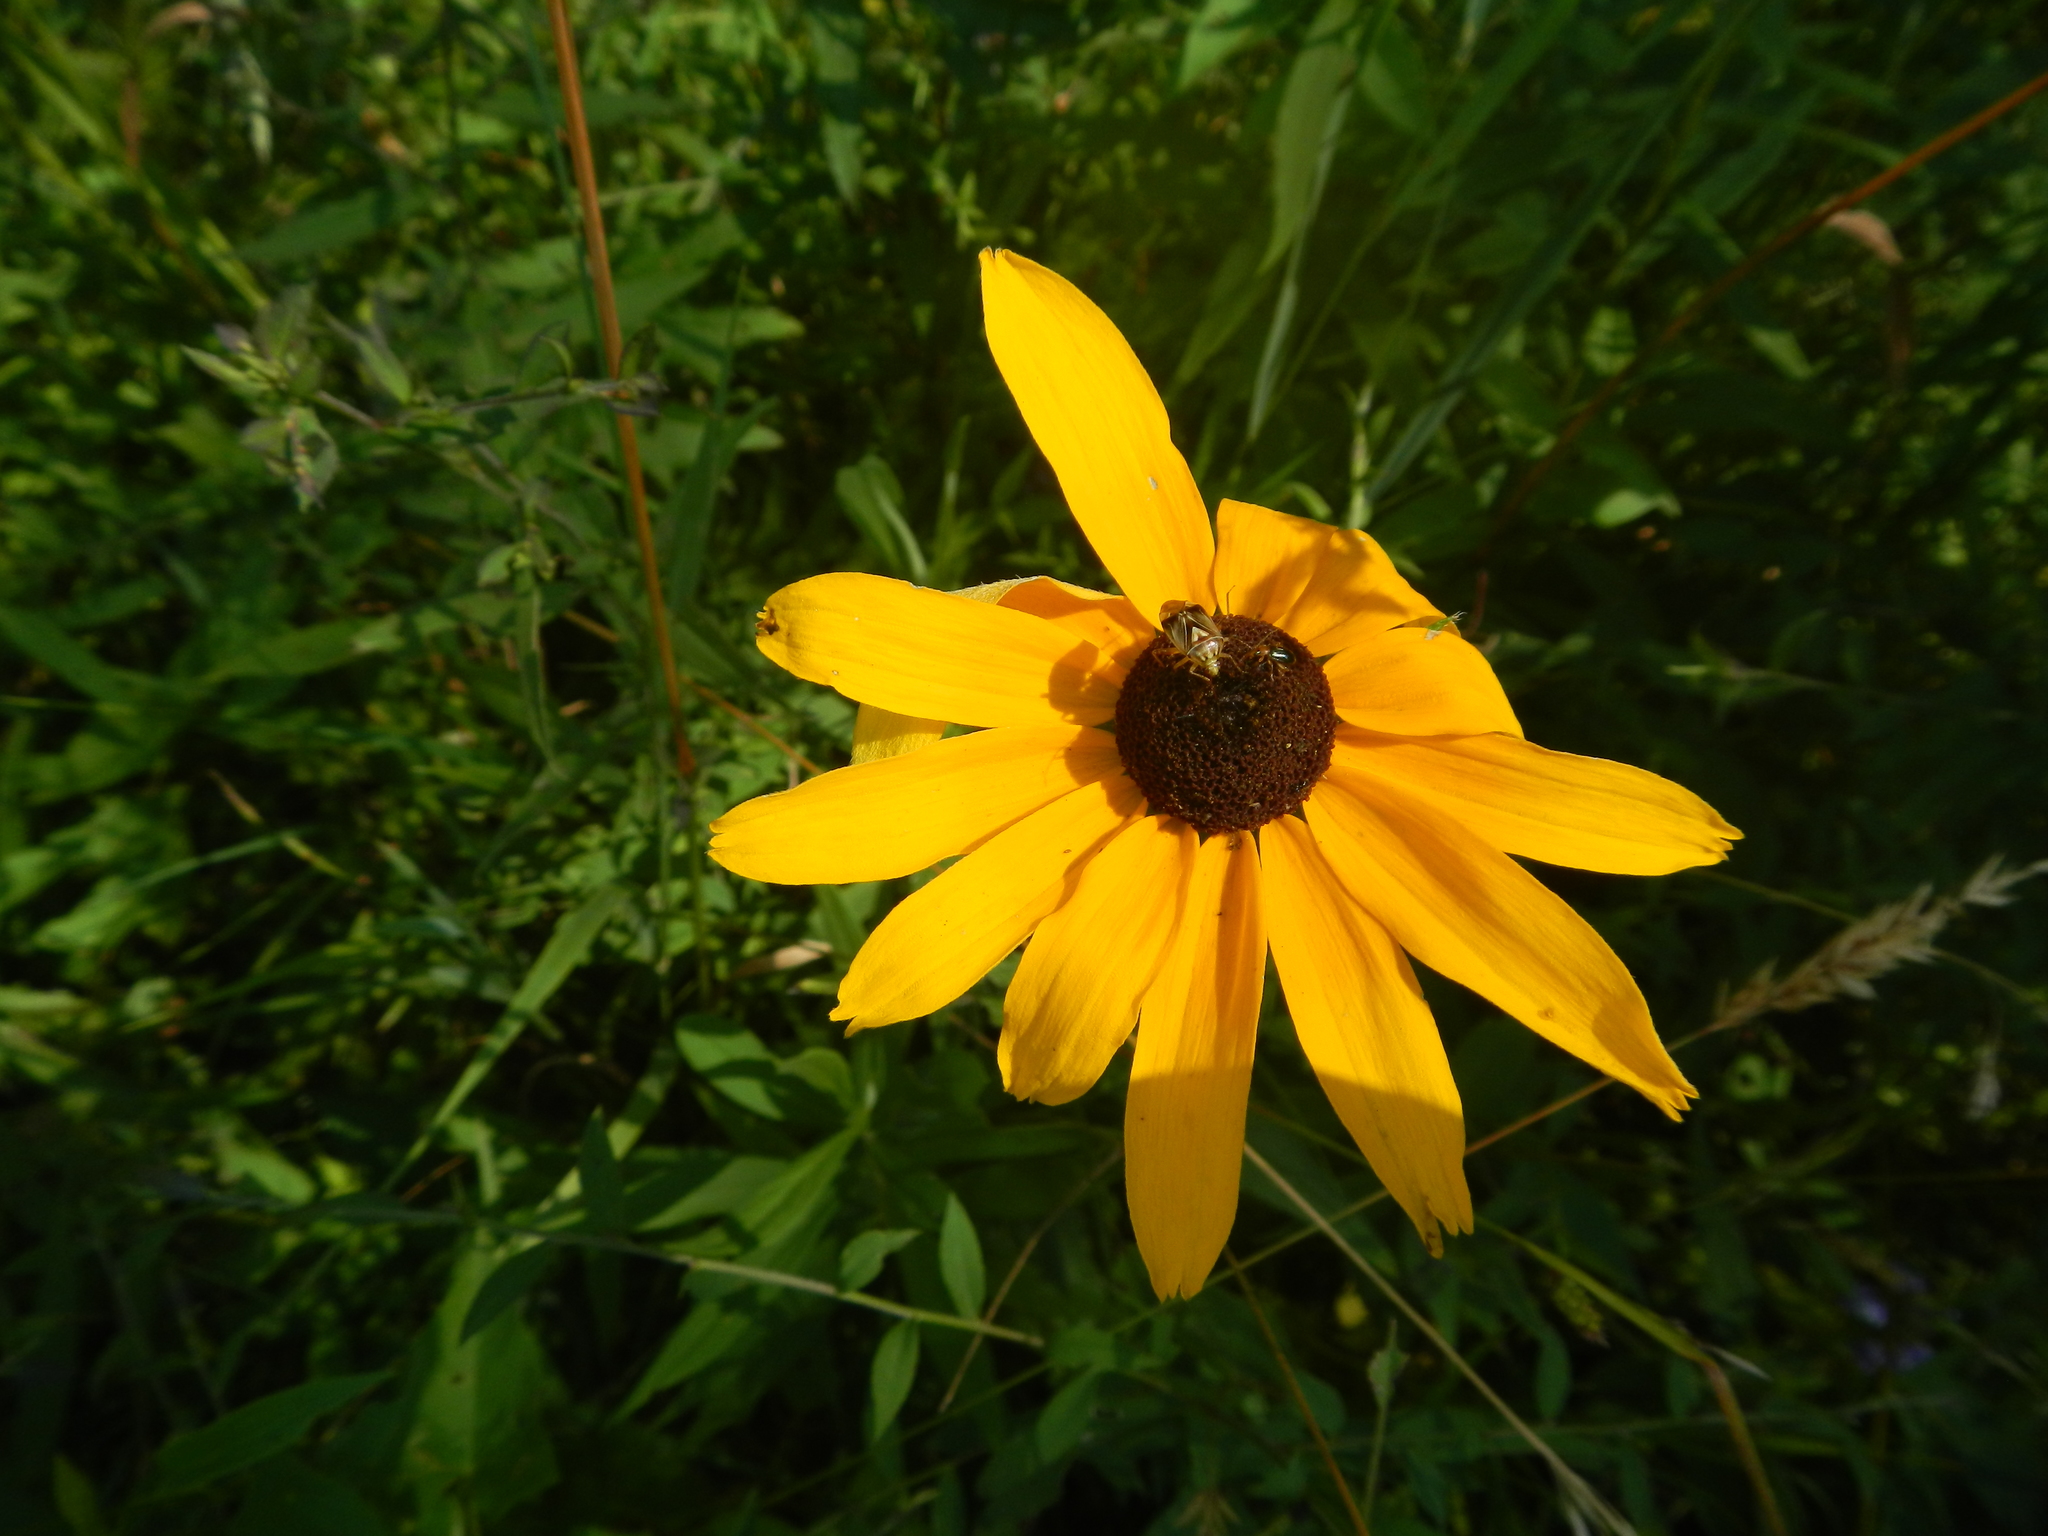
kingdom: Plantae
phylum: Tracheophyta
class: Magnoliopsida
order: Asterales
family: Asteraceae
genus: Rudbeckia
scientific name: Rudbeckia hirta
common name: Black-eyed-susan
